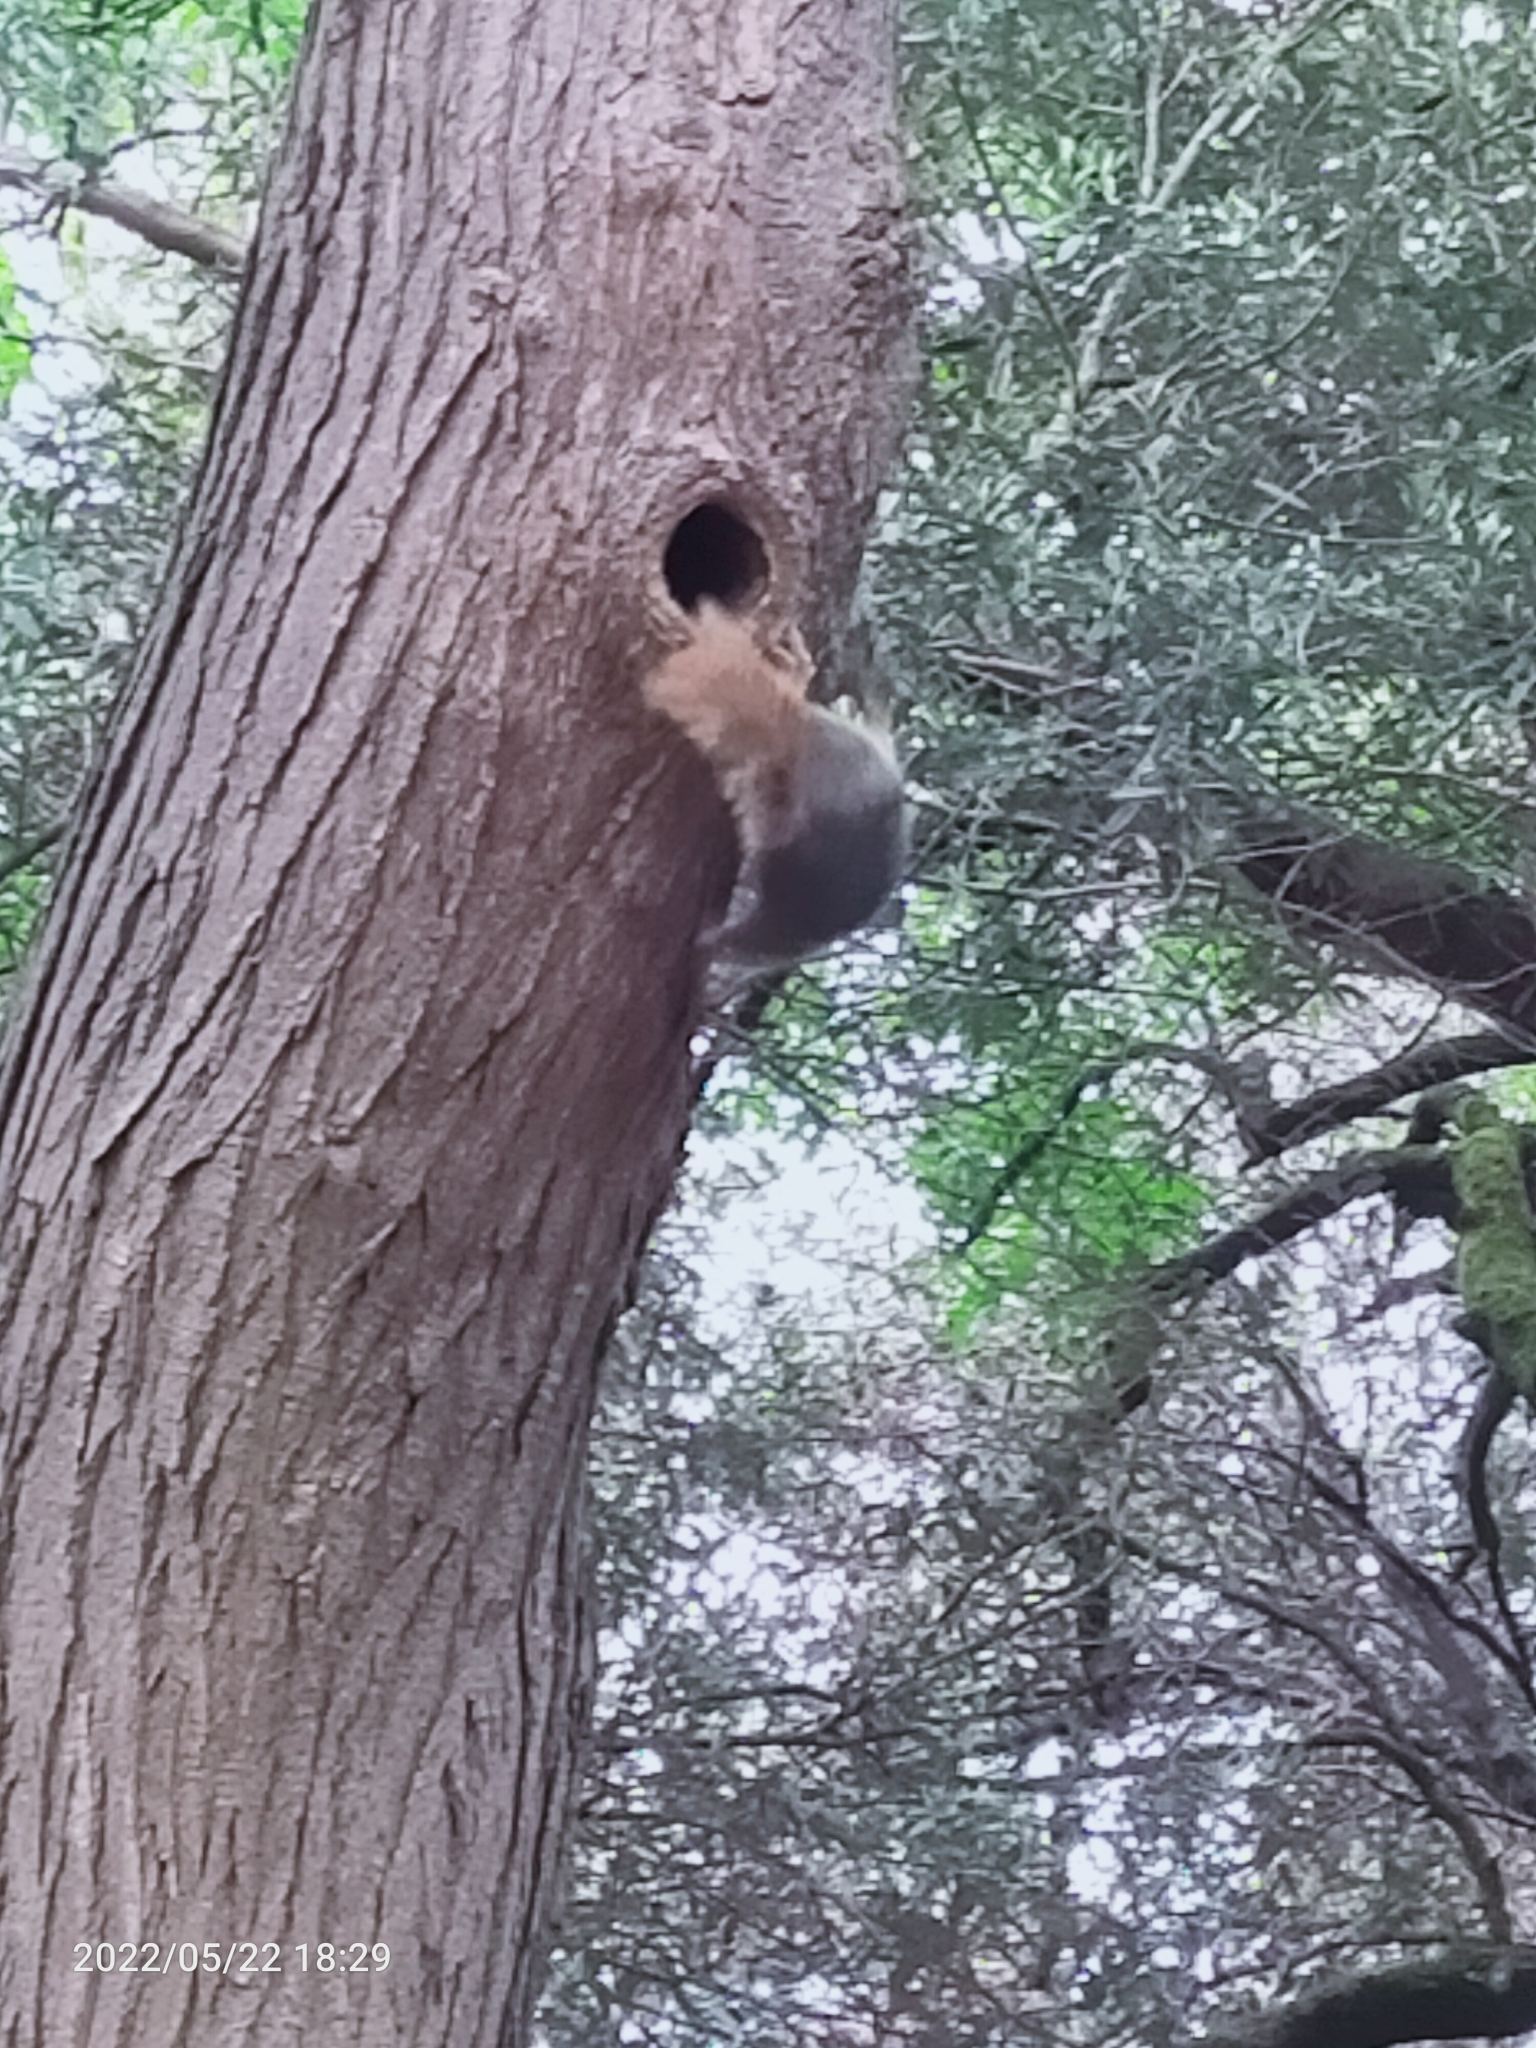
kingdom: Animalia
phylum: Chordata
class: Mammalia
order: Rodentia
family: Sciuridae
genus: Sciurus
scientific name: Sciurus anomalus
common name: Caucasian squirrel
